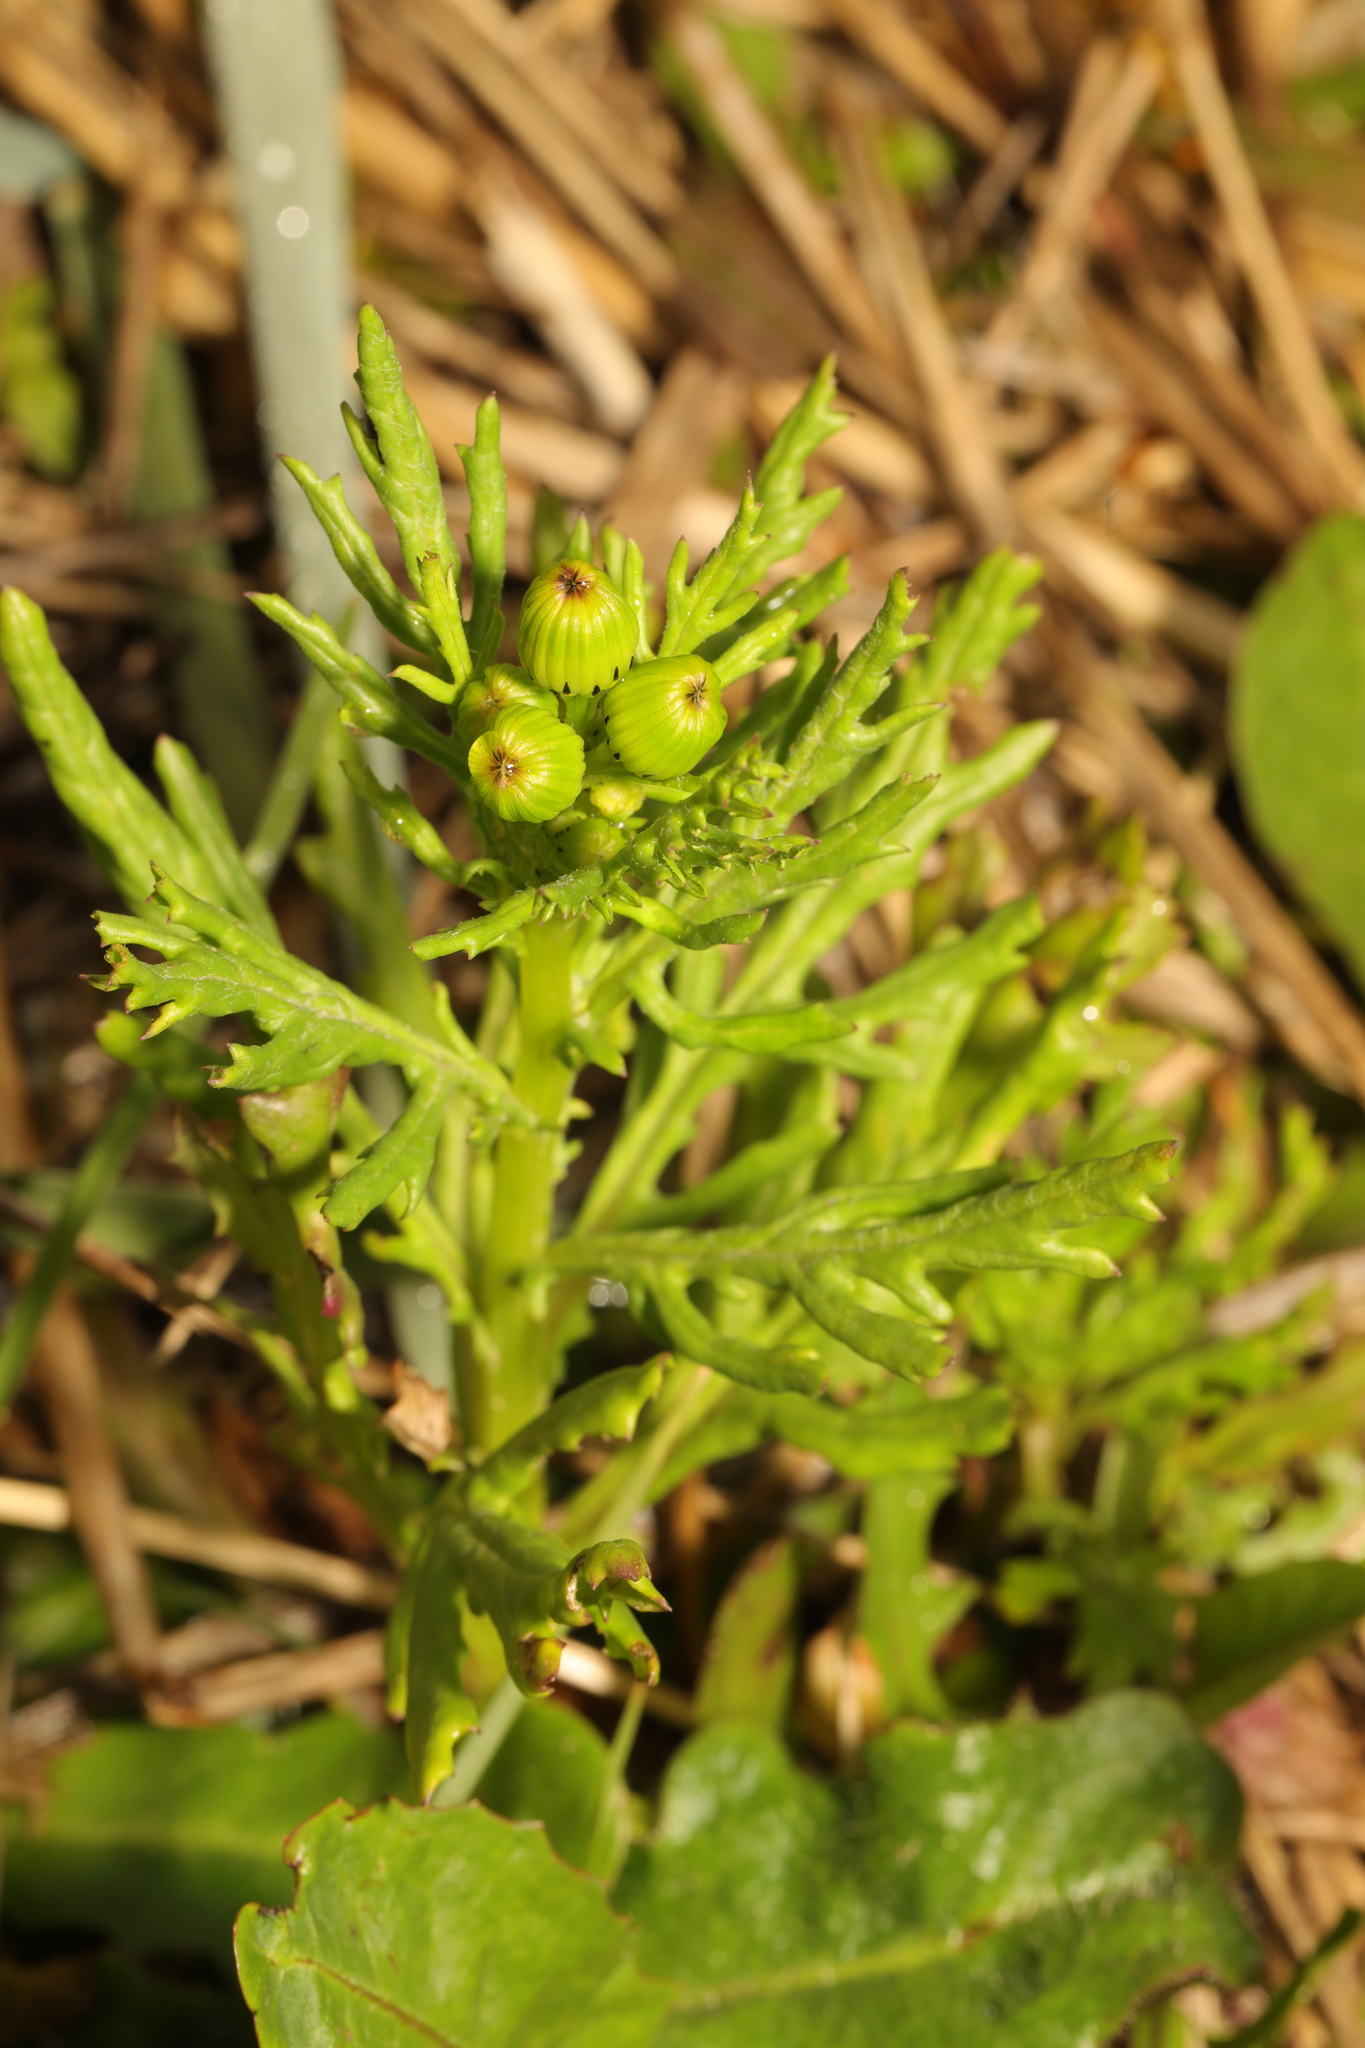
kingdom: Plantae
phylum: Tracheophyta
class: Magnoliopsida
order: Asterales
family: Asteraceae
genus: Senecio
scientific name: Senecio squalidus
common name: Oxford ragwort
